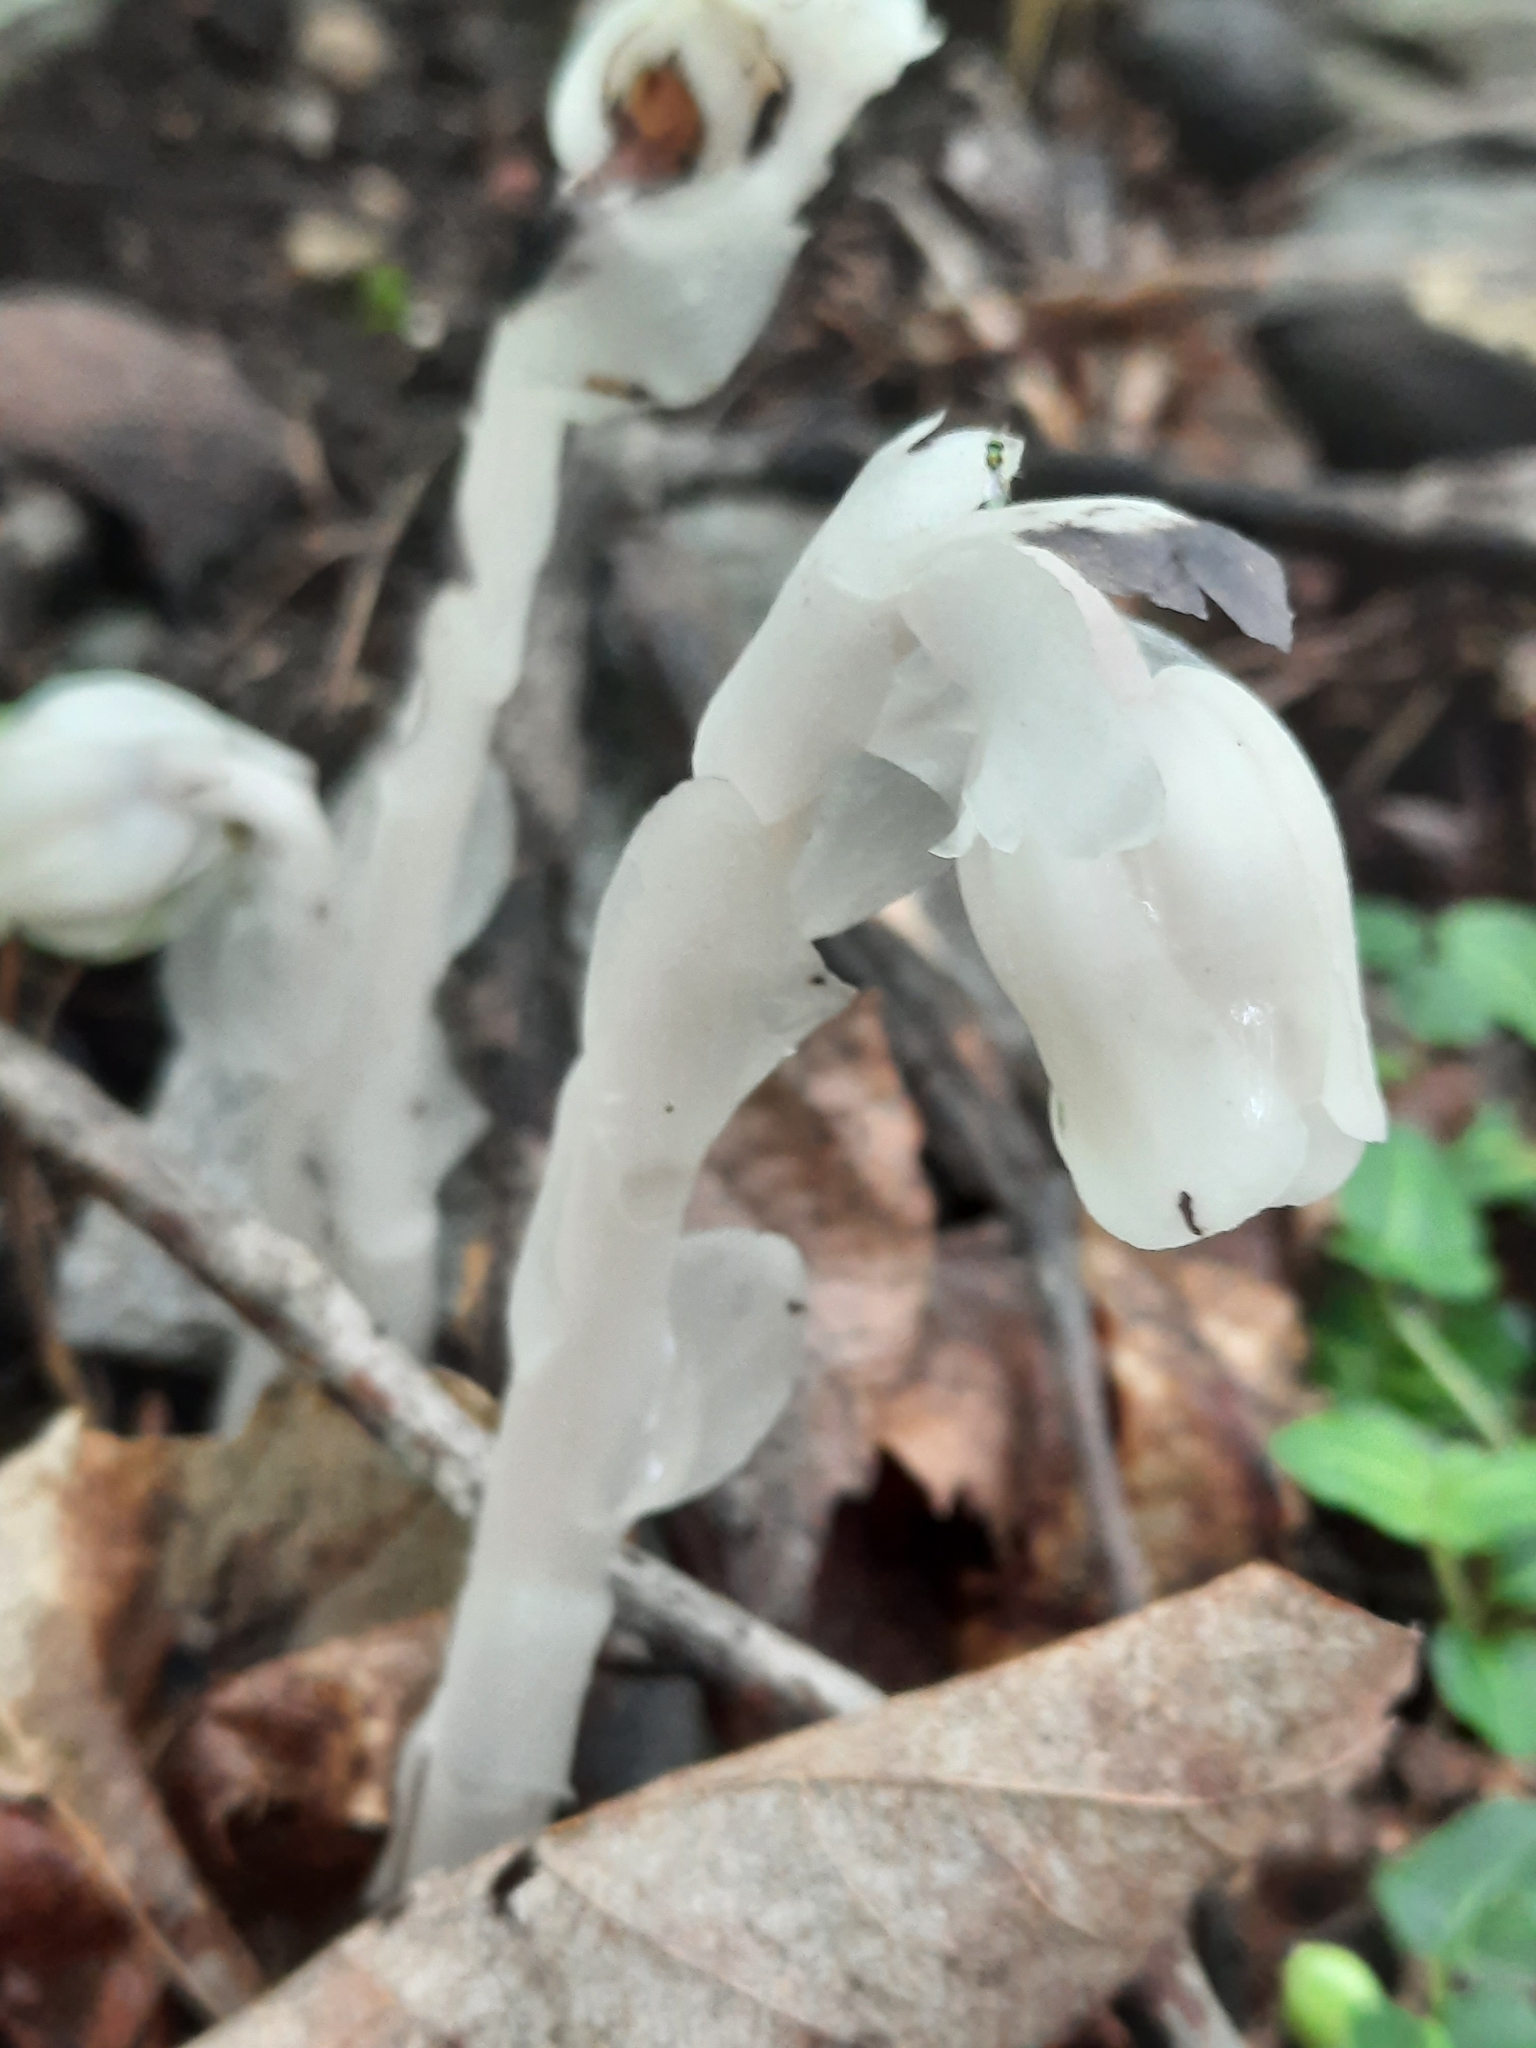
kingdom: Plantae
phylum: Tracheophyta
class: Magnoliopsida
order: Ericales
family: Ericaceae
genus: Monotropa
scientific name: Monotropa uniflora
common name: Convulsion root
